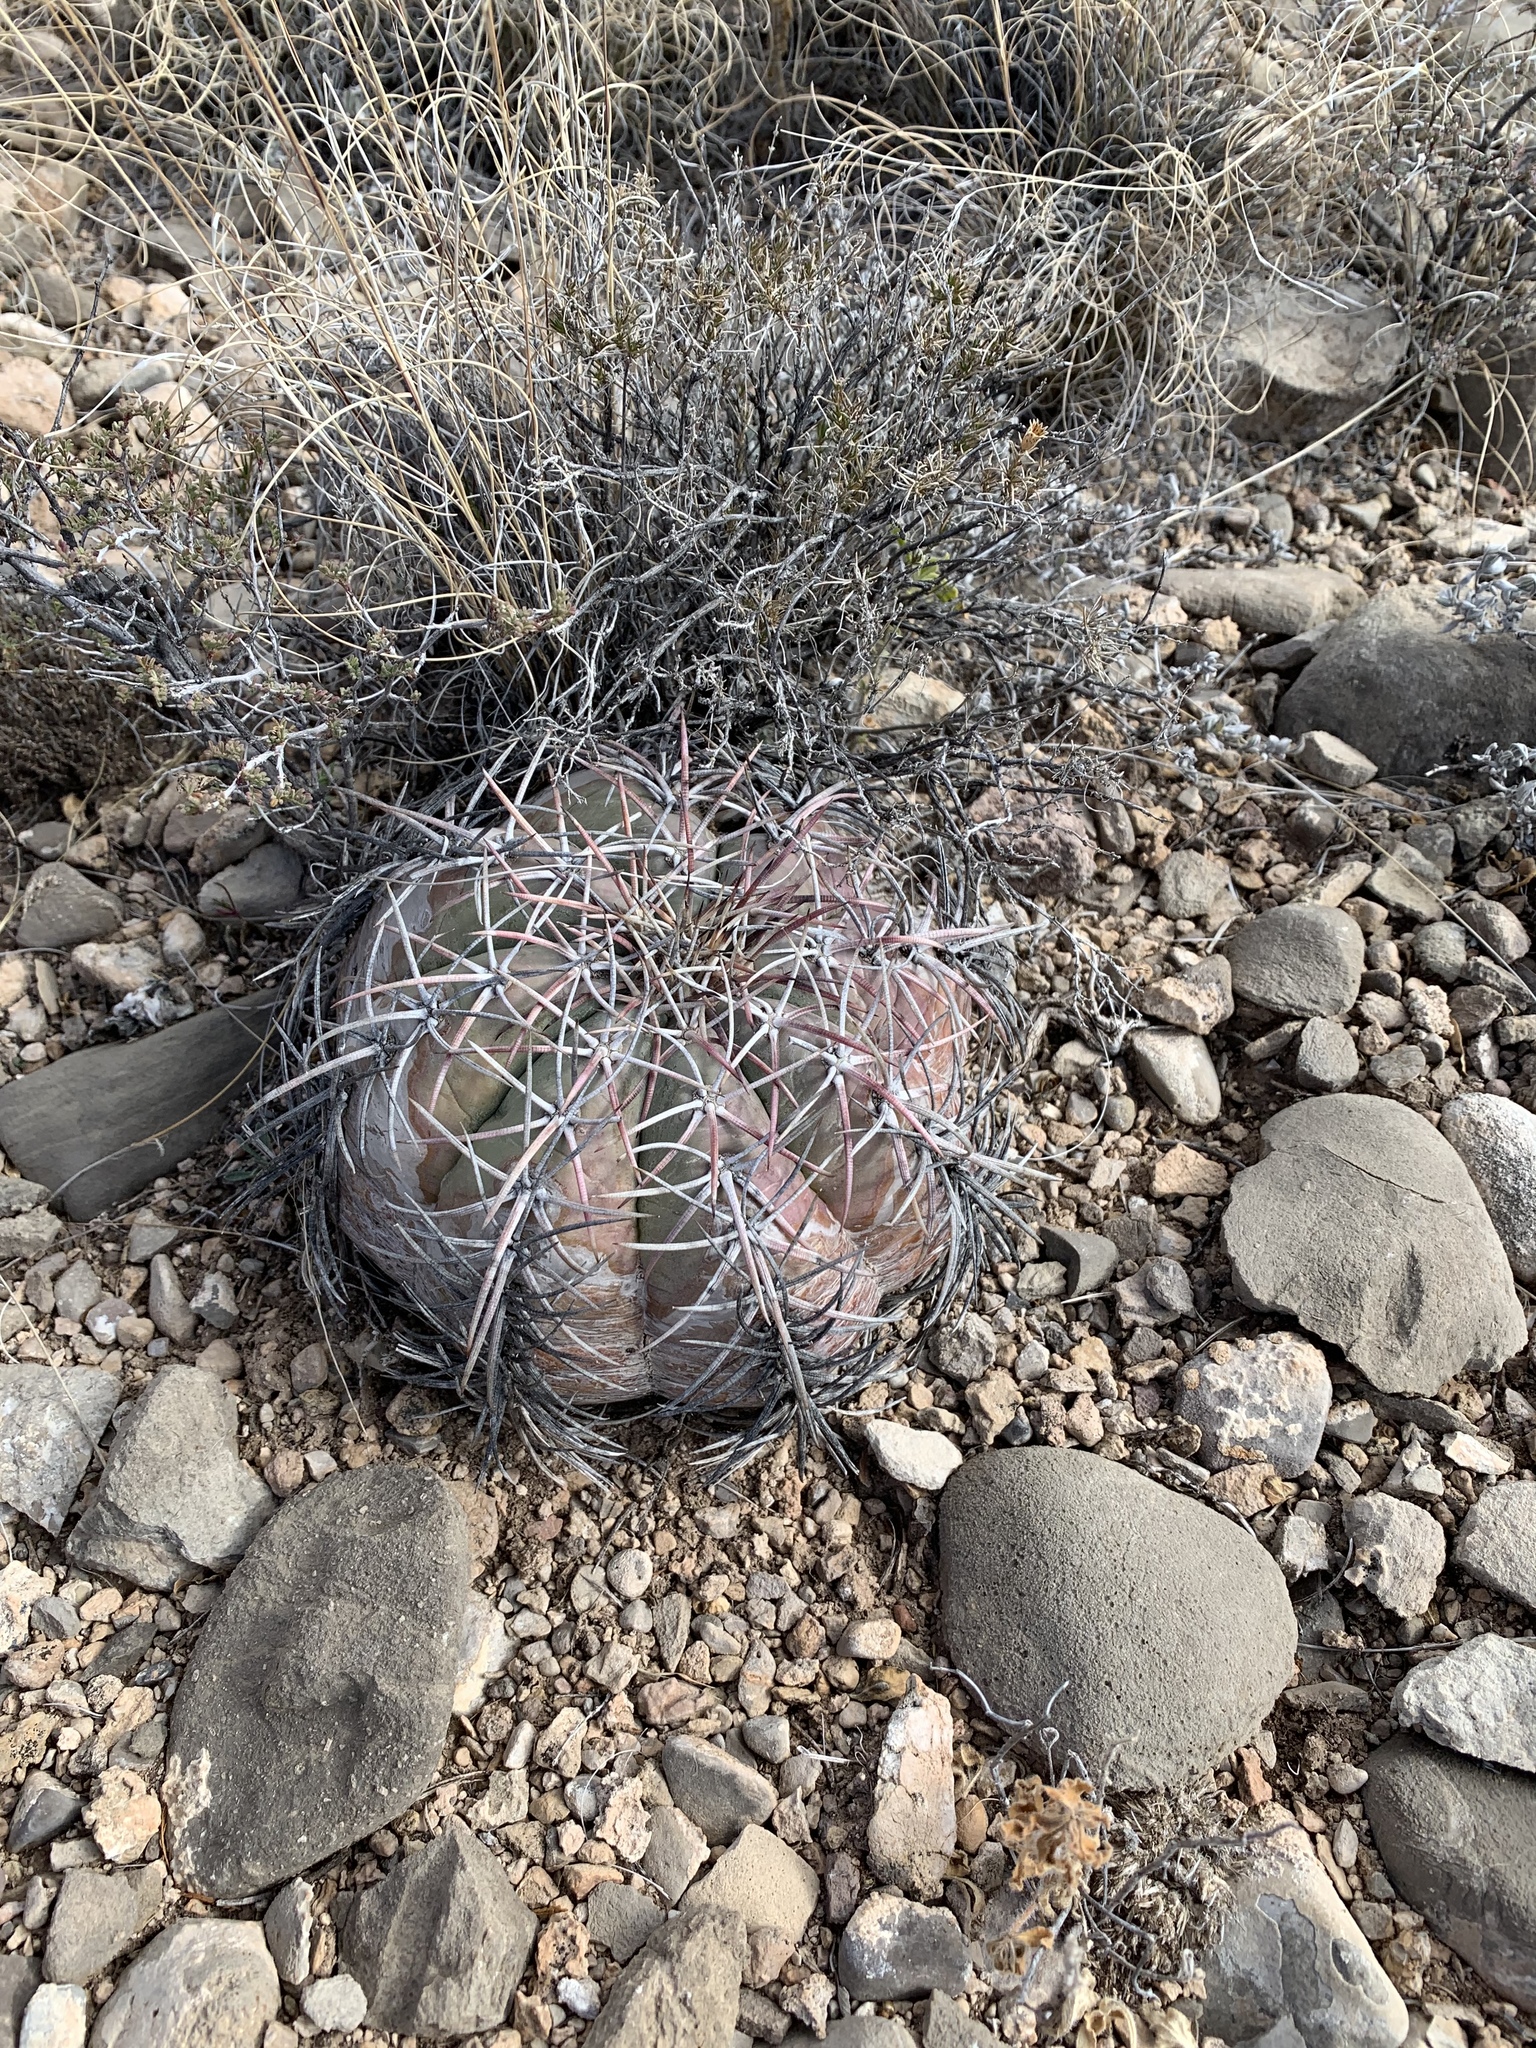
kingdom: Plantae
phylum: Tracheophyta
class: Magnoliopsida
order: Caryophyllales
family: Cactaceae
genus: Echinocactus
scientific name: Echinocactus horizonthalonius
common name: Devilshead
